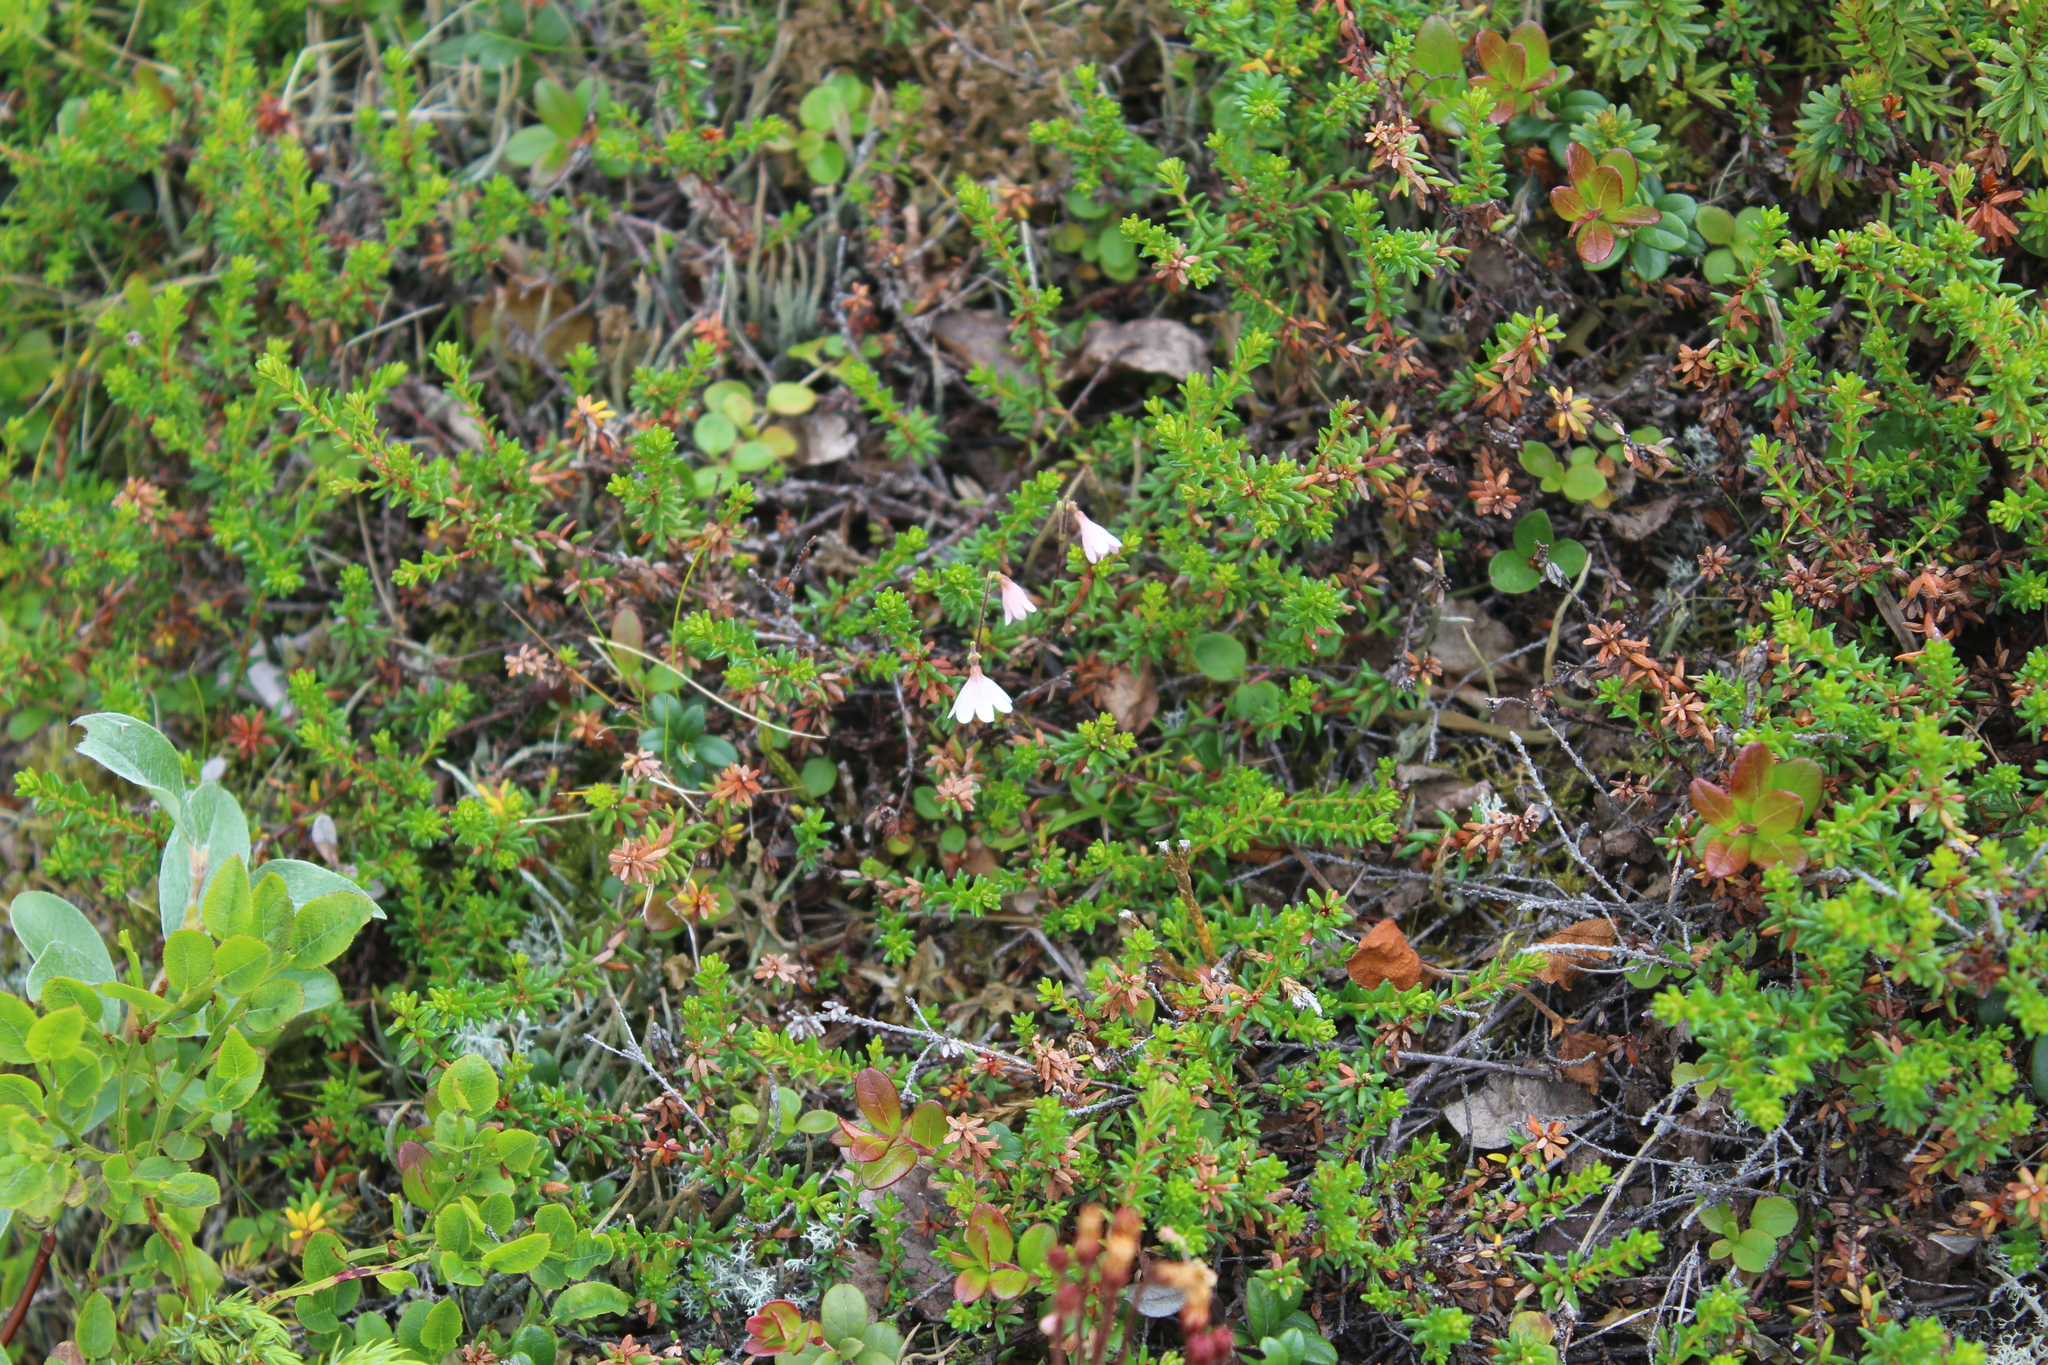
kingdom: Plantae
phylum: Tracheophyta
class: Magnoliopsida
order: Dipsacales
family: Caprifoliaceae
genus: Linnaea
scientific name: Linnaea borealis
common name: Twinflower
